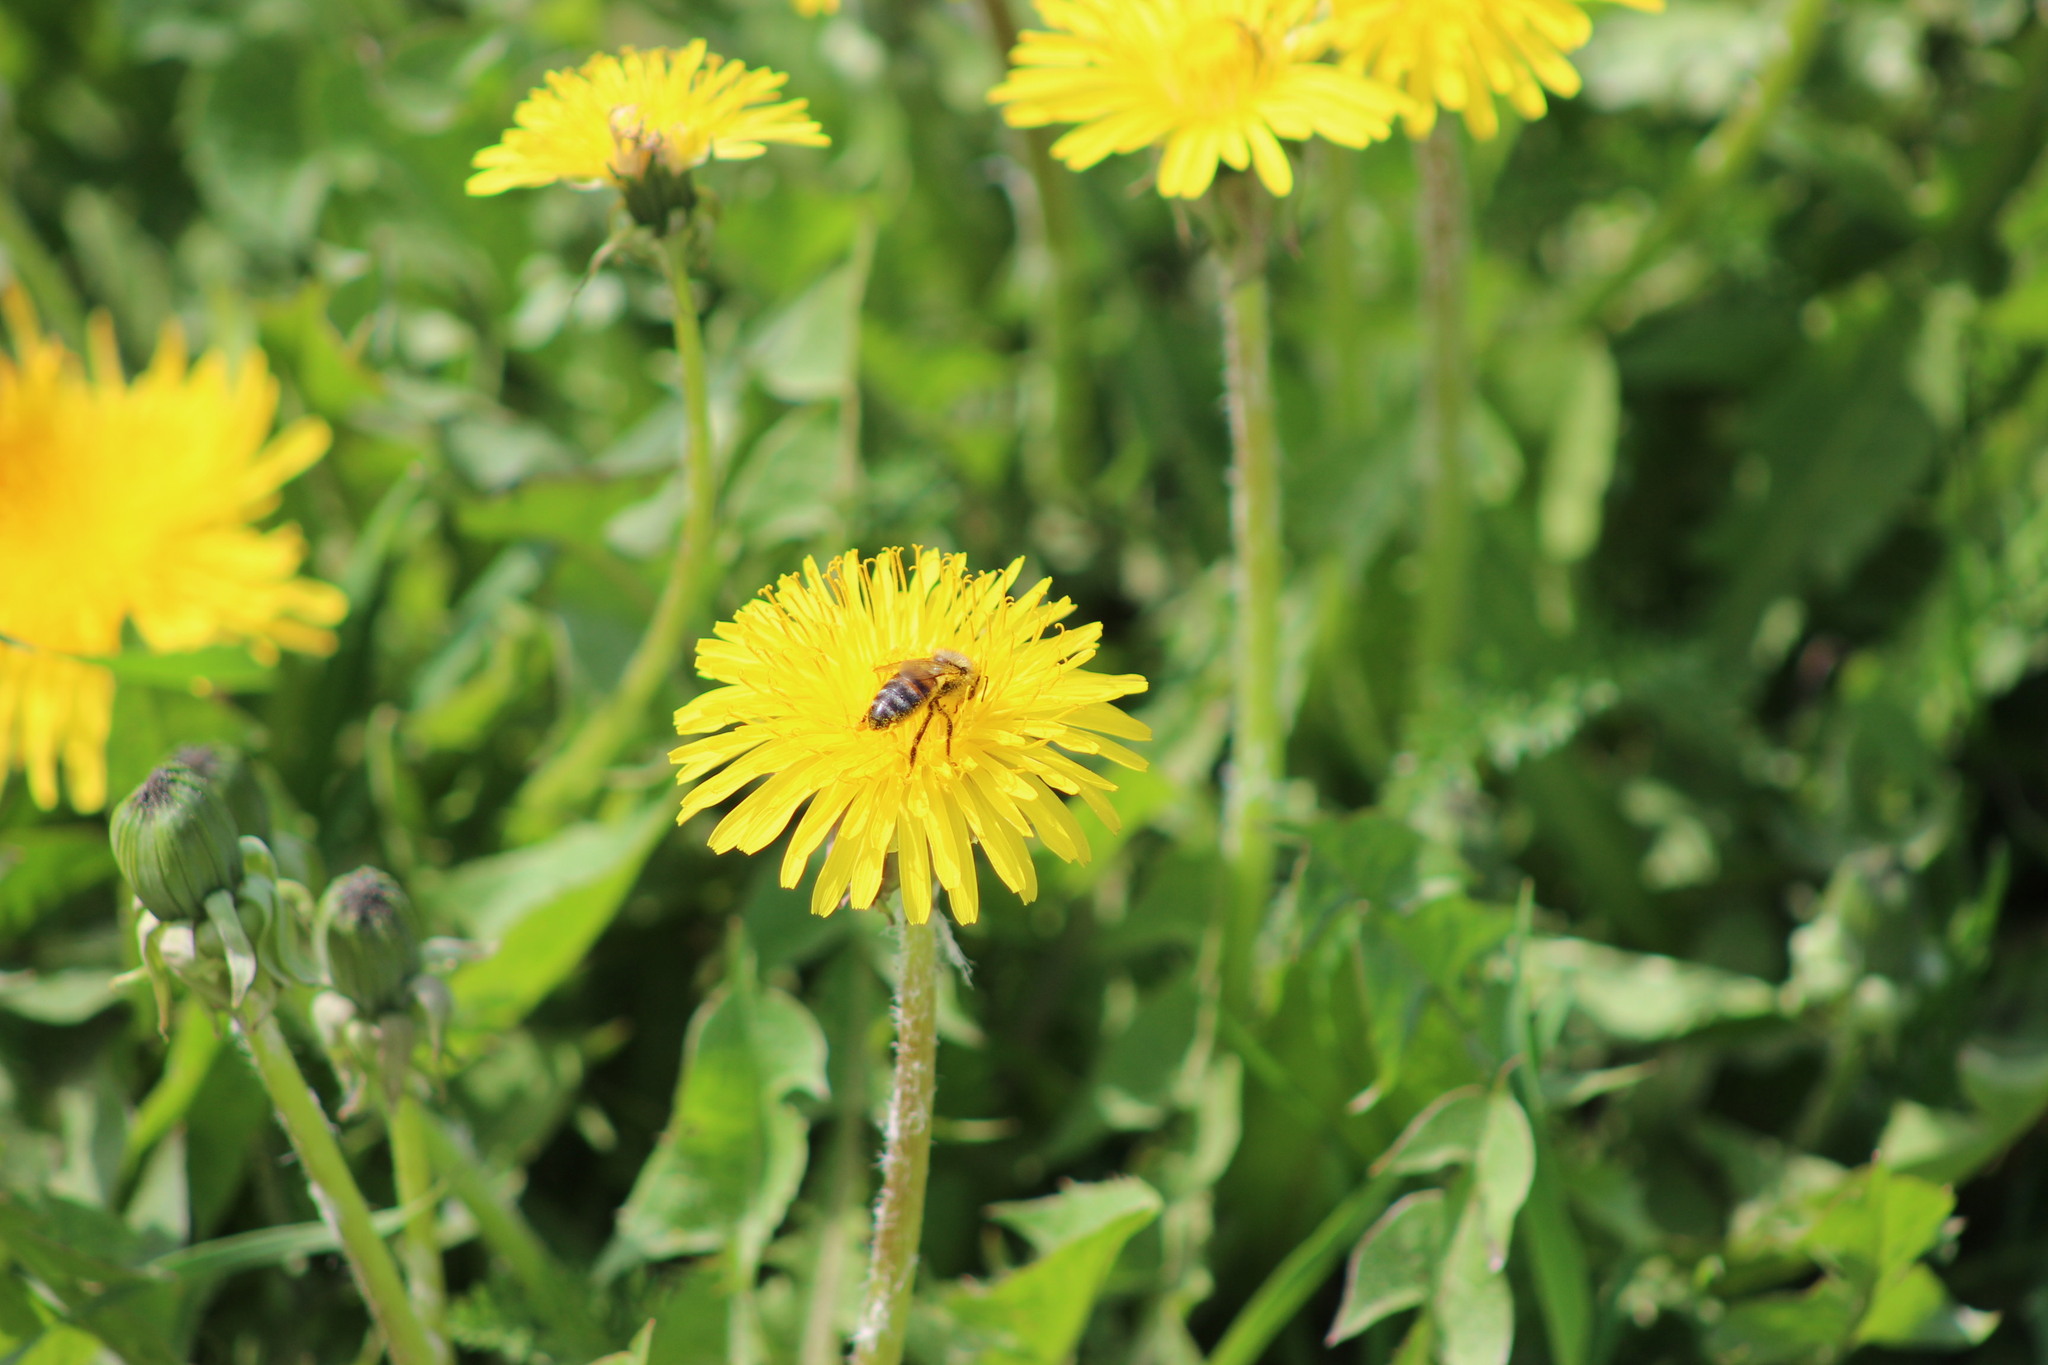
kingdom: Animalia
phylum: Arthropoda
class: Insecta
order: Hymenoptera
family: Apidae
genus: Apis
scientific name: Apis mellifera
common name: Honey bee
